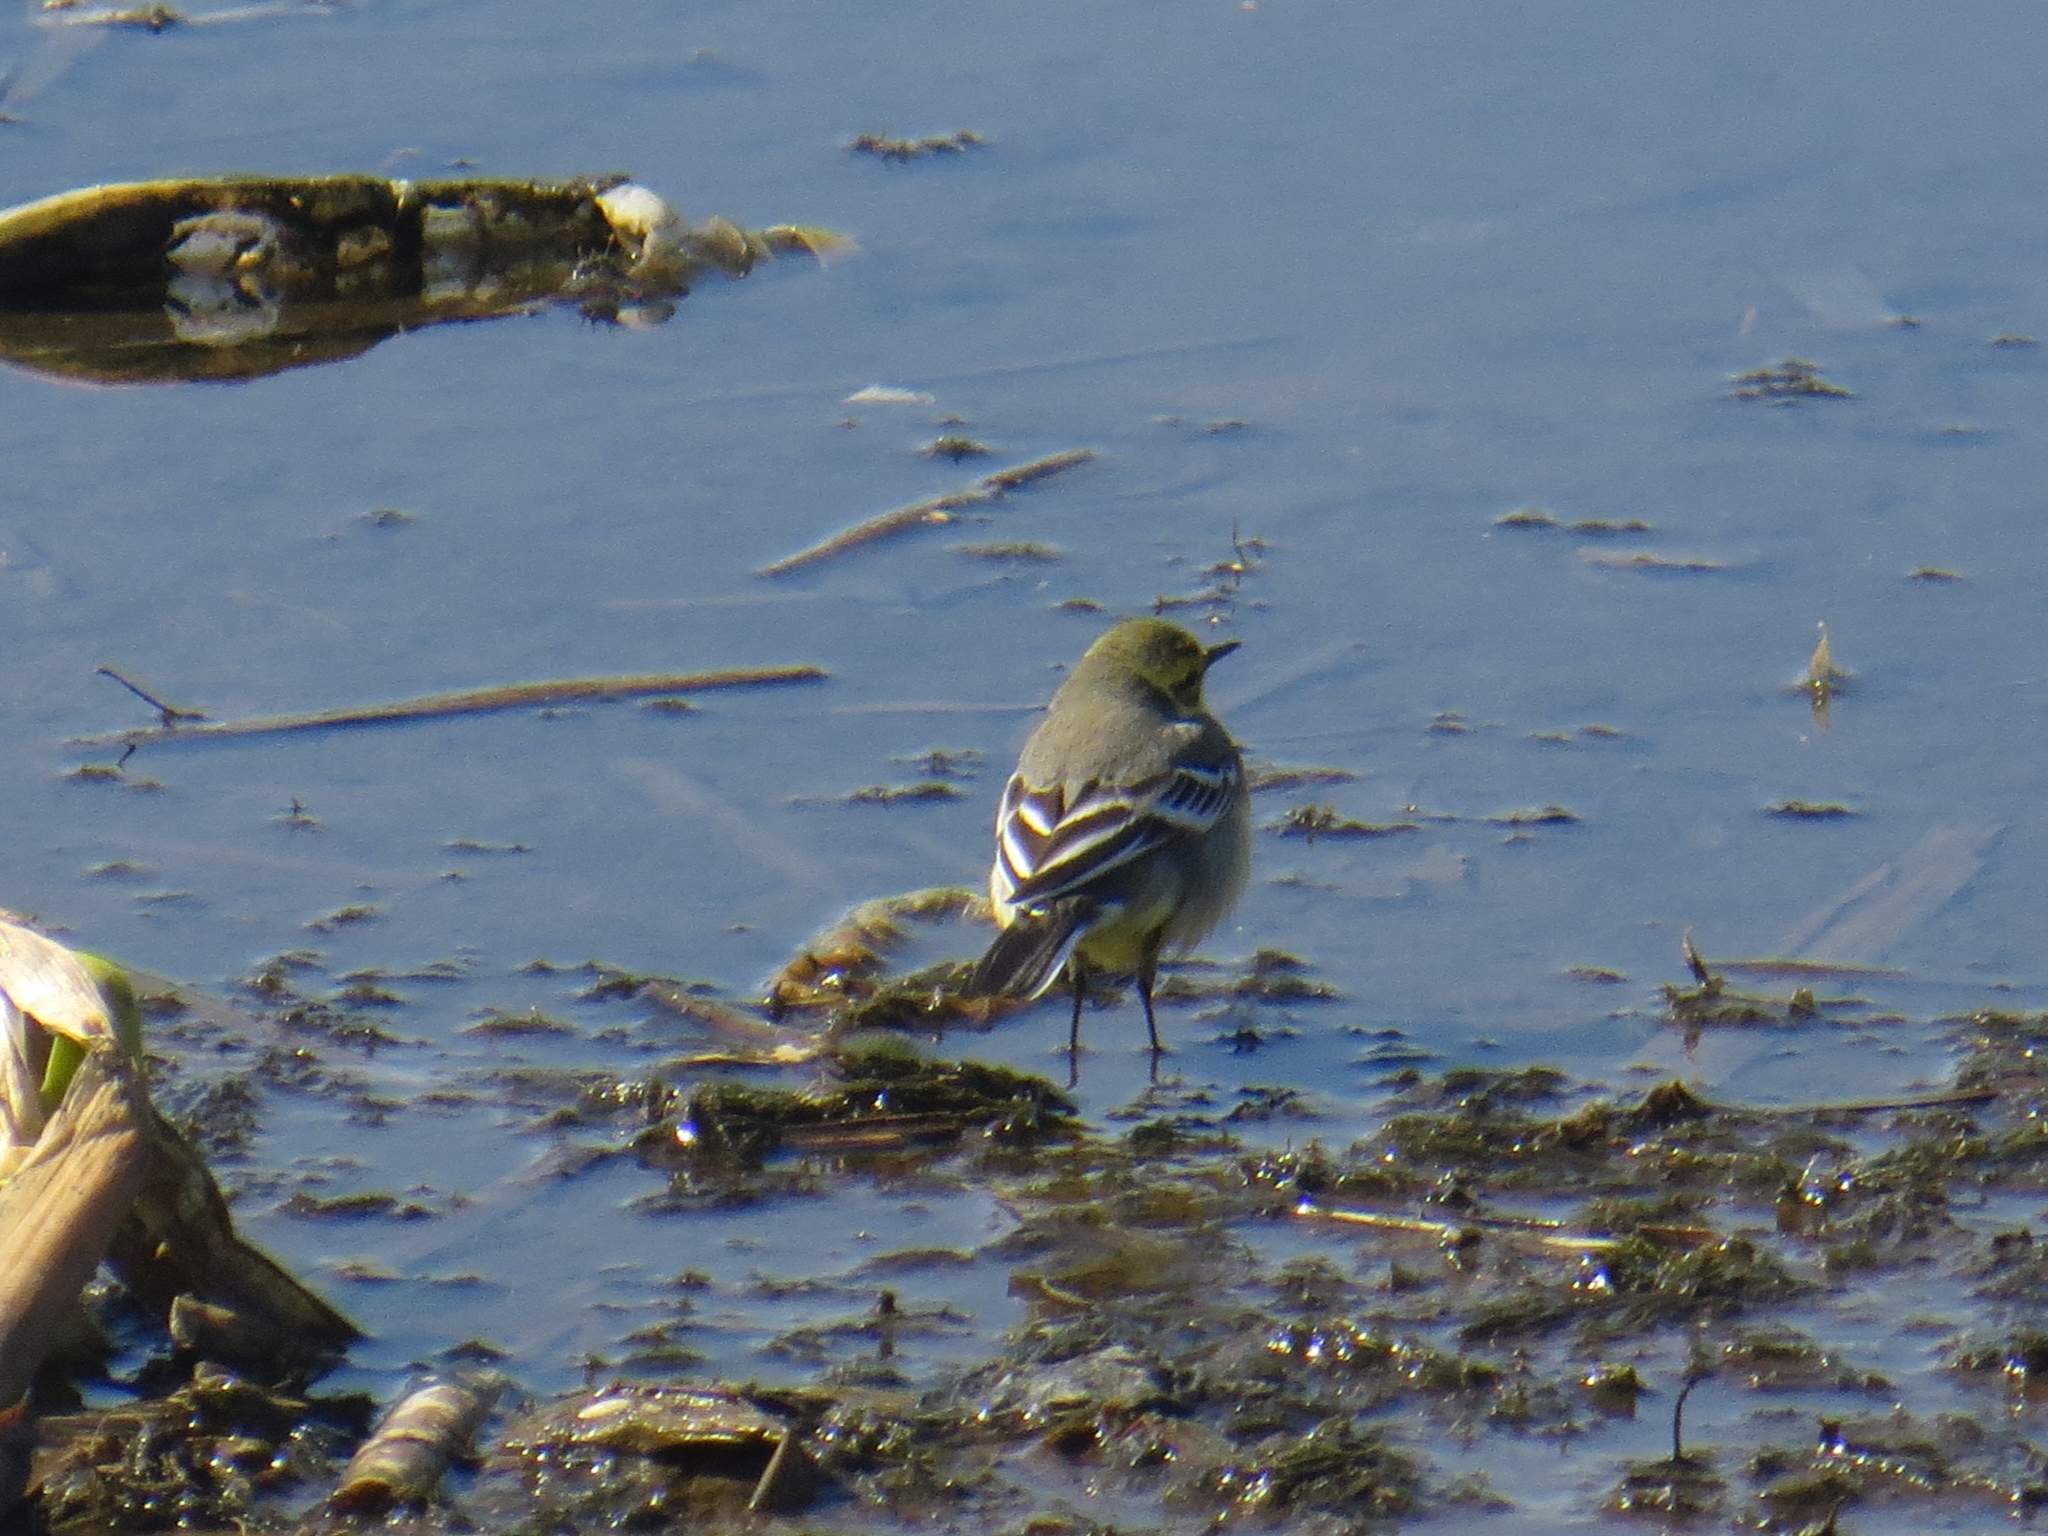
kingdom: Animalia
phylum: Chordata
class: Aves
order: Passeriformes
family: Motacillidae
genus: Motacilla
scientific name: Motacilla citreola
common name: Citrine wagtail
